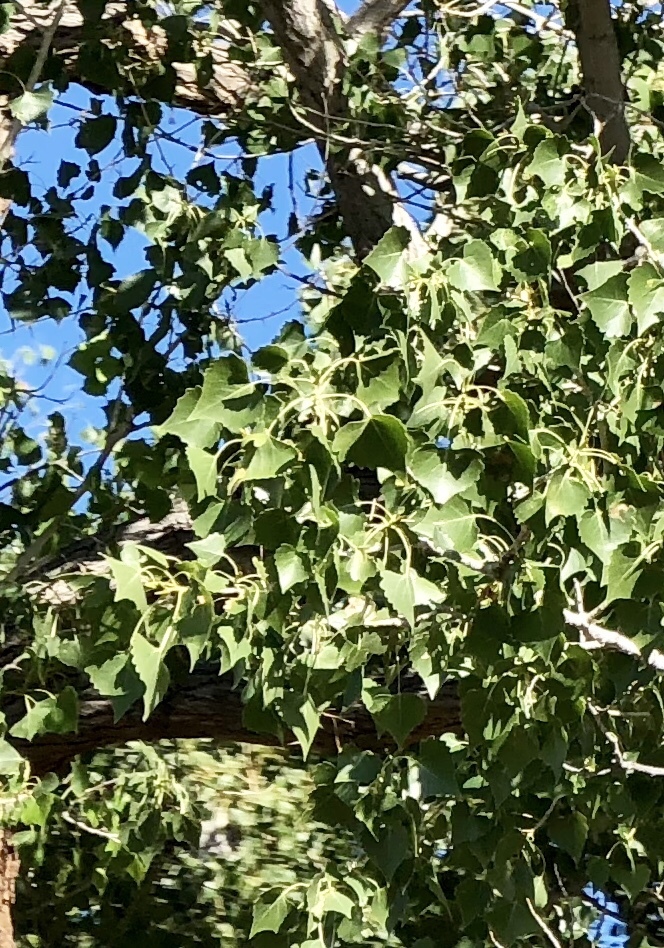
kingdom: Plantae
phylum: Tracheophyta
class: Magnoliopsida
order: Malpighiales
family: Salicaceae
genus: Populus
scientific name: Populus fremontii
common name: Fremont's cottonwood
